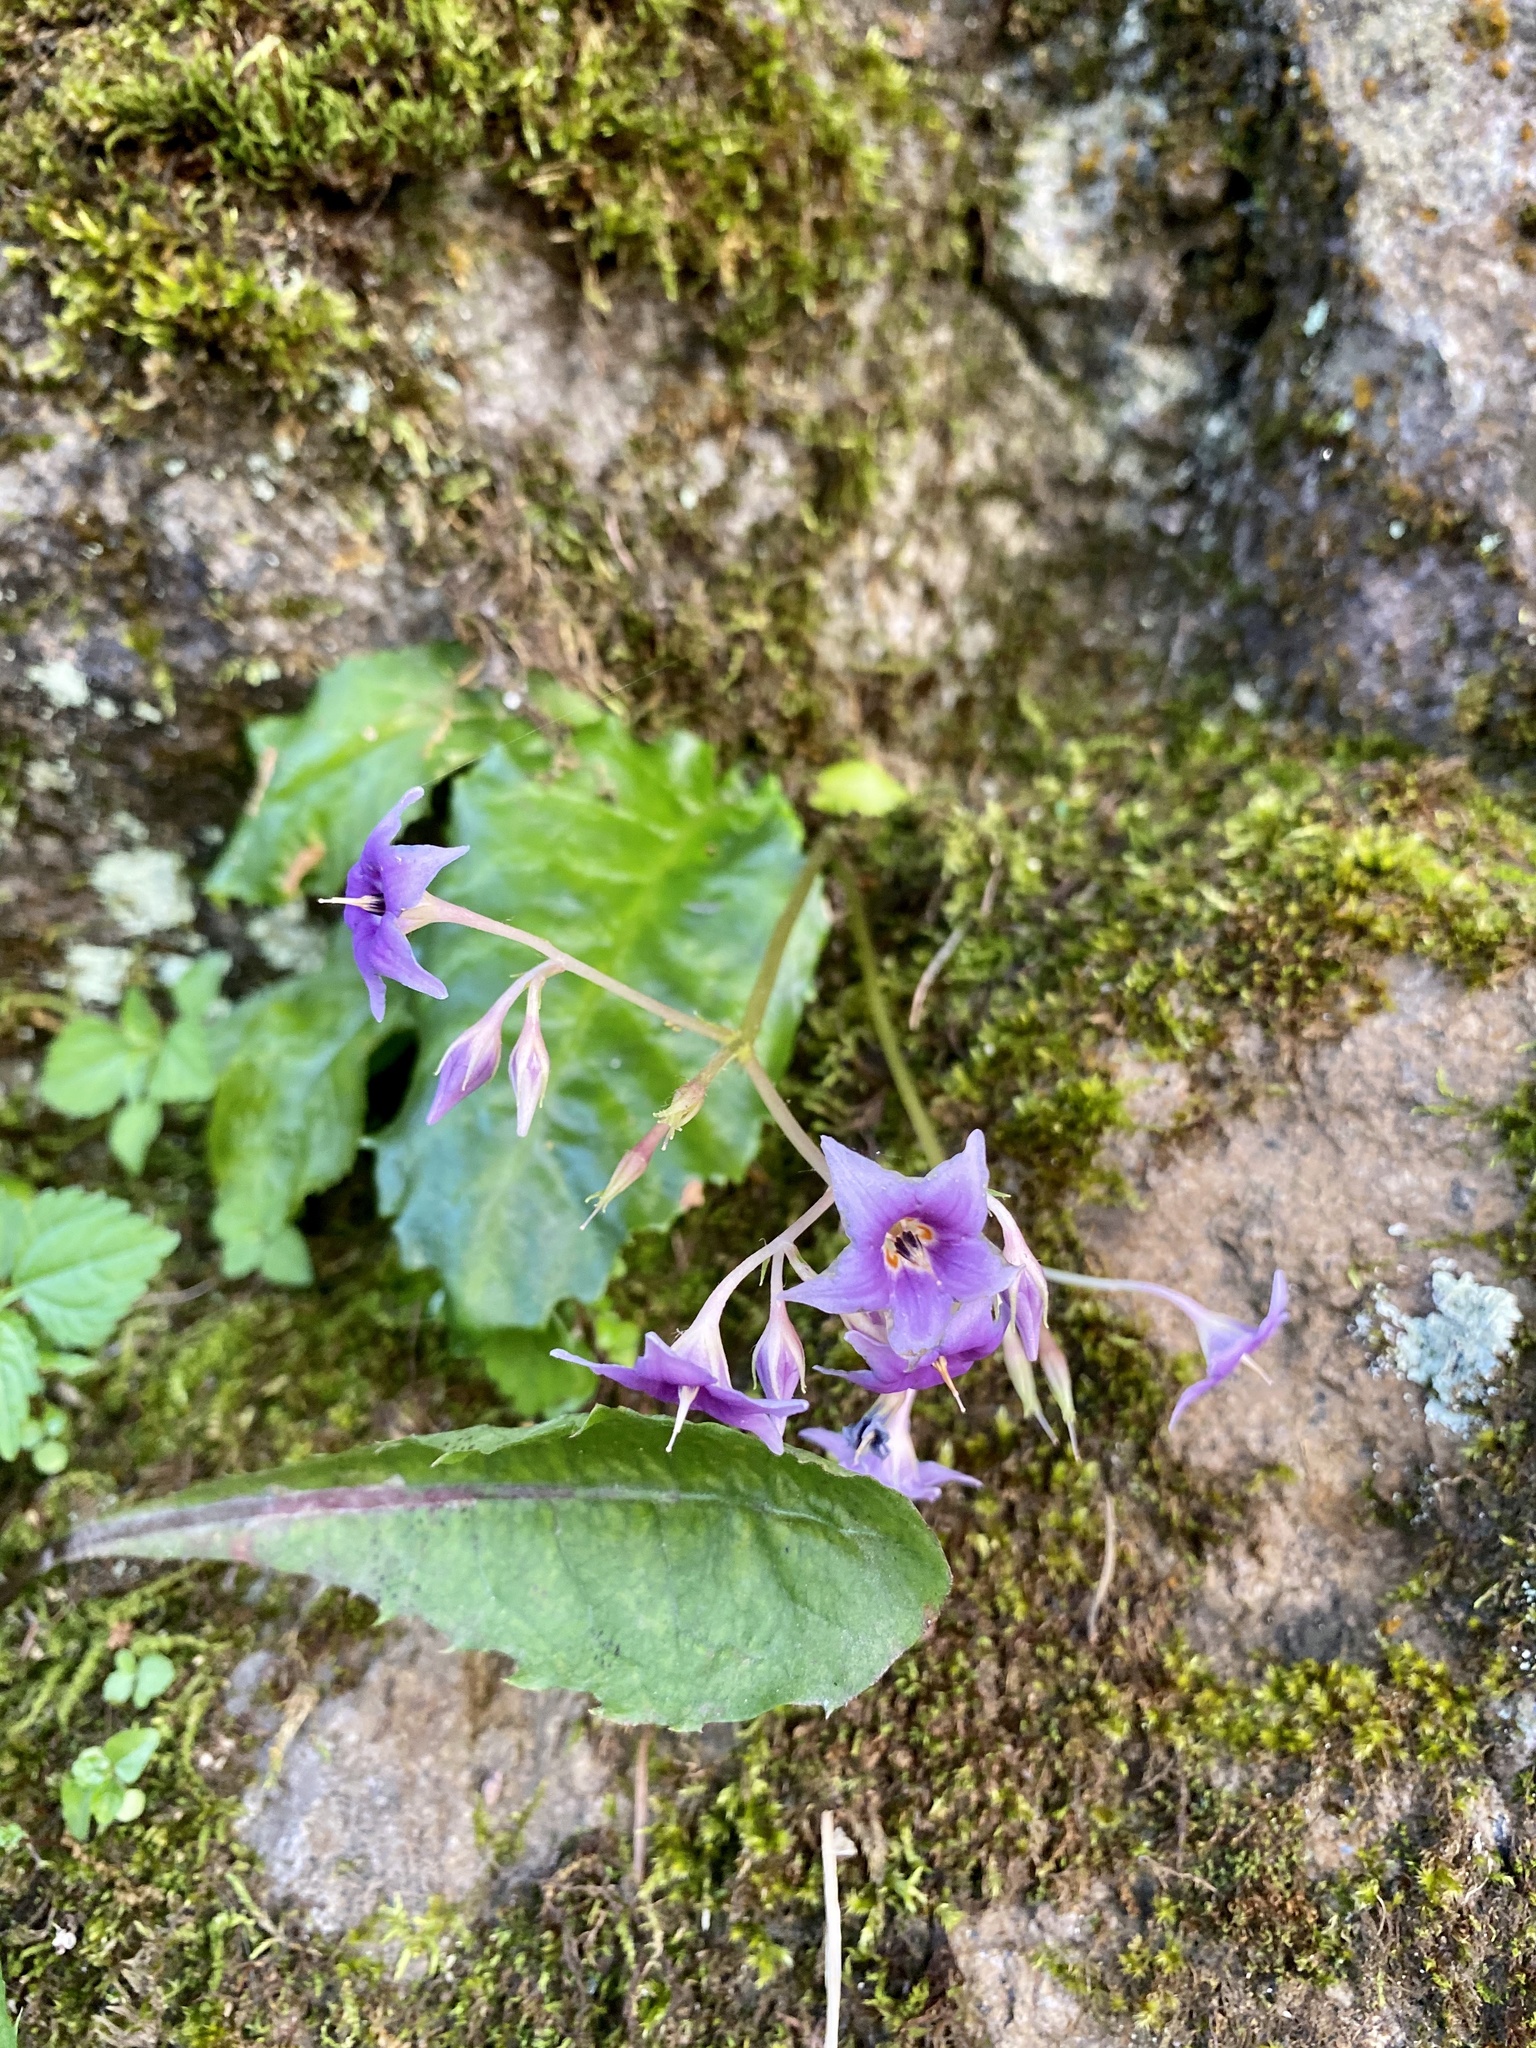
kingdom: Plantae
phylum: Tracheophyta
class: Magnoliopsida
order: Lamiales
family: Gesneriaceae
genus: Conandron
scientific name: Conandron ramondioides
